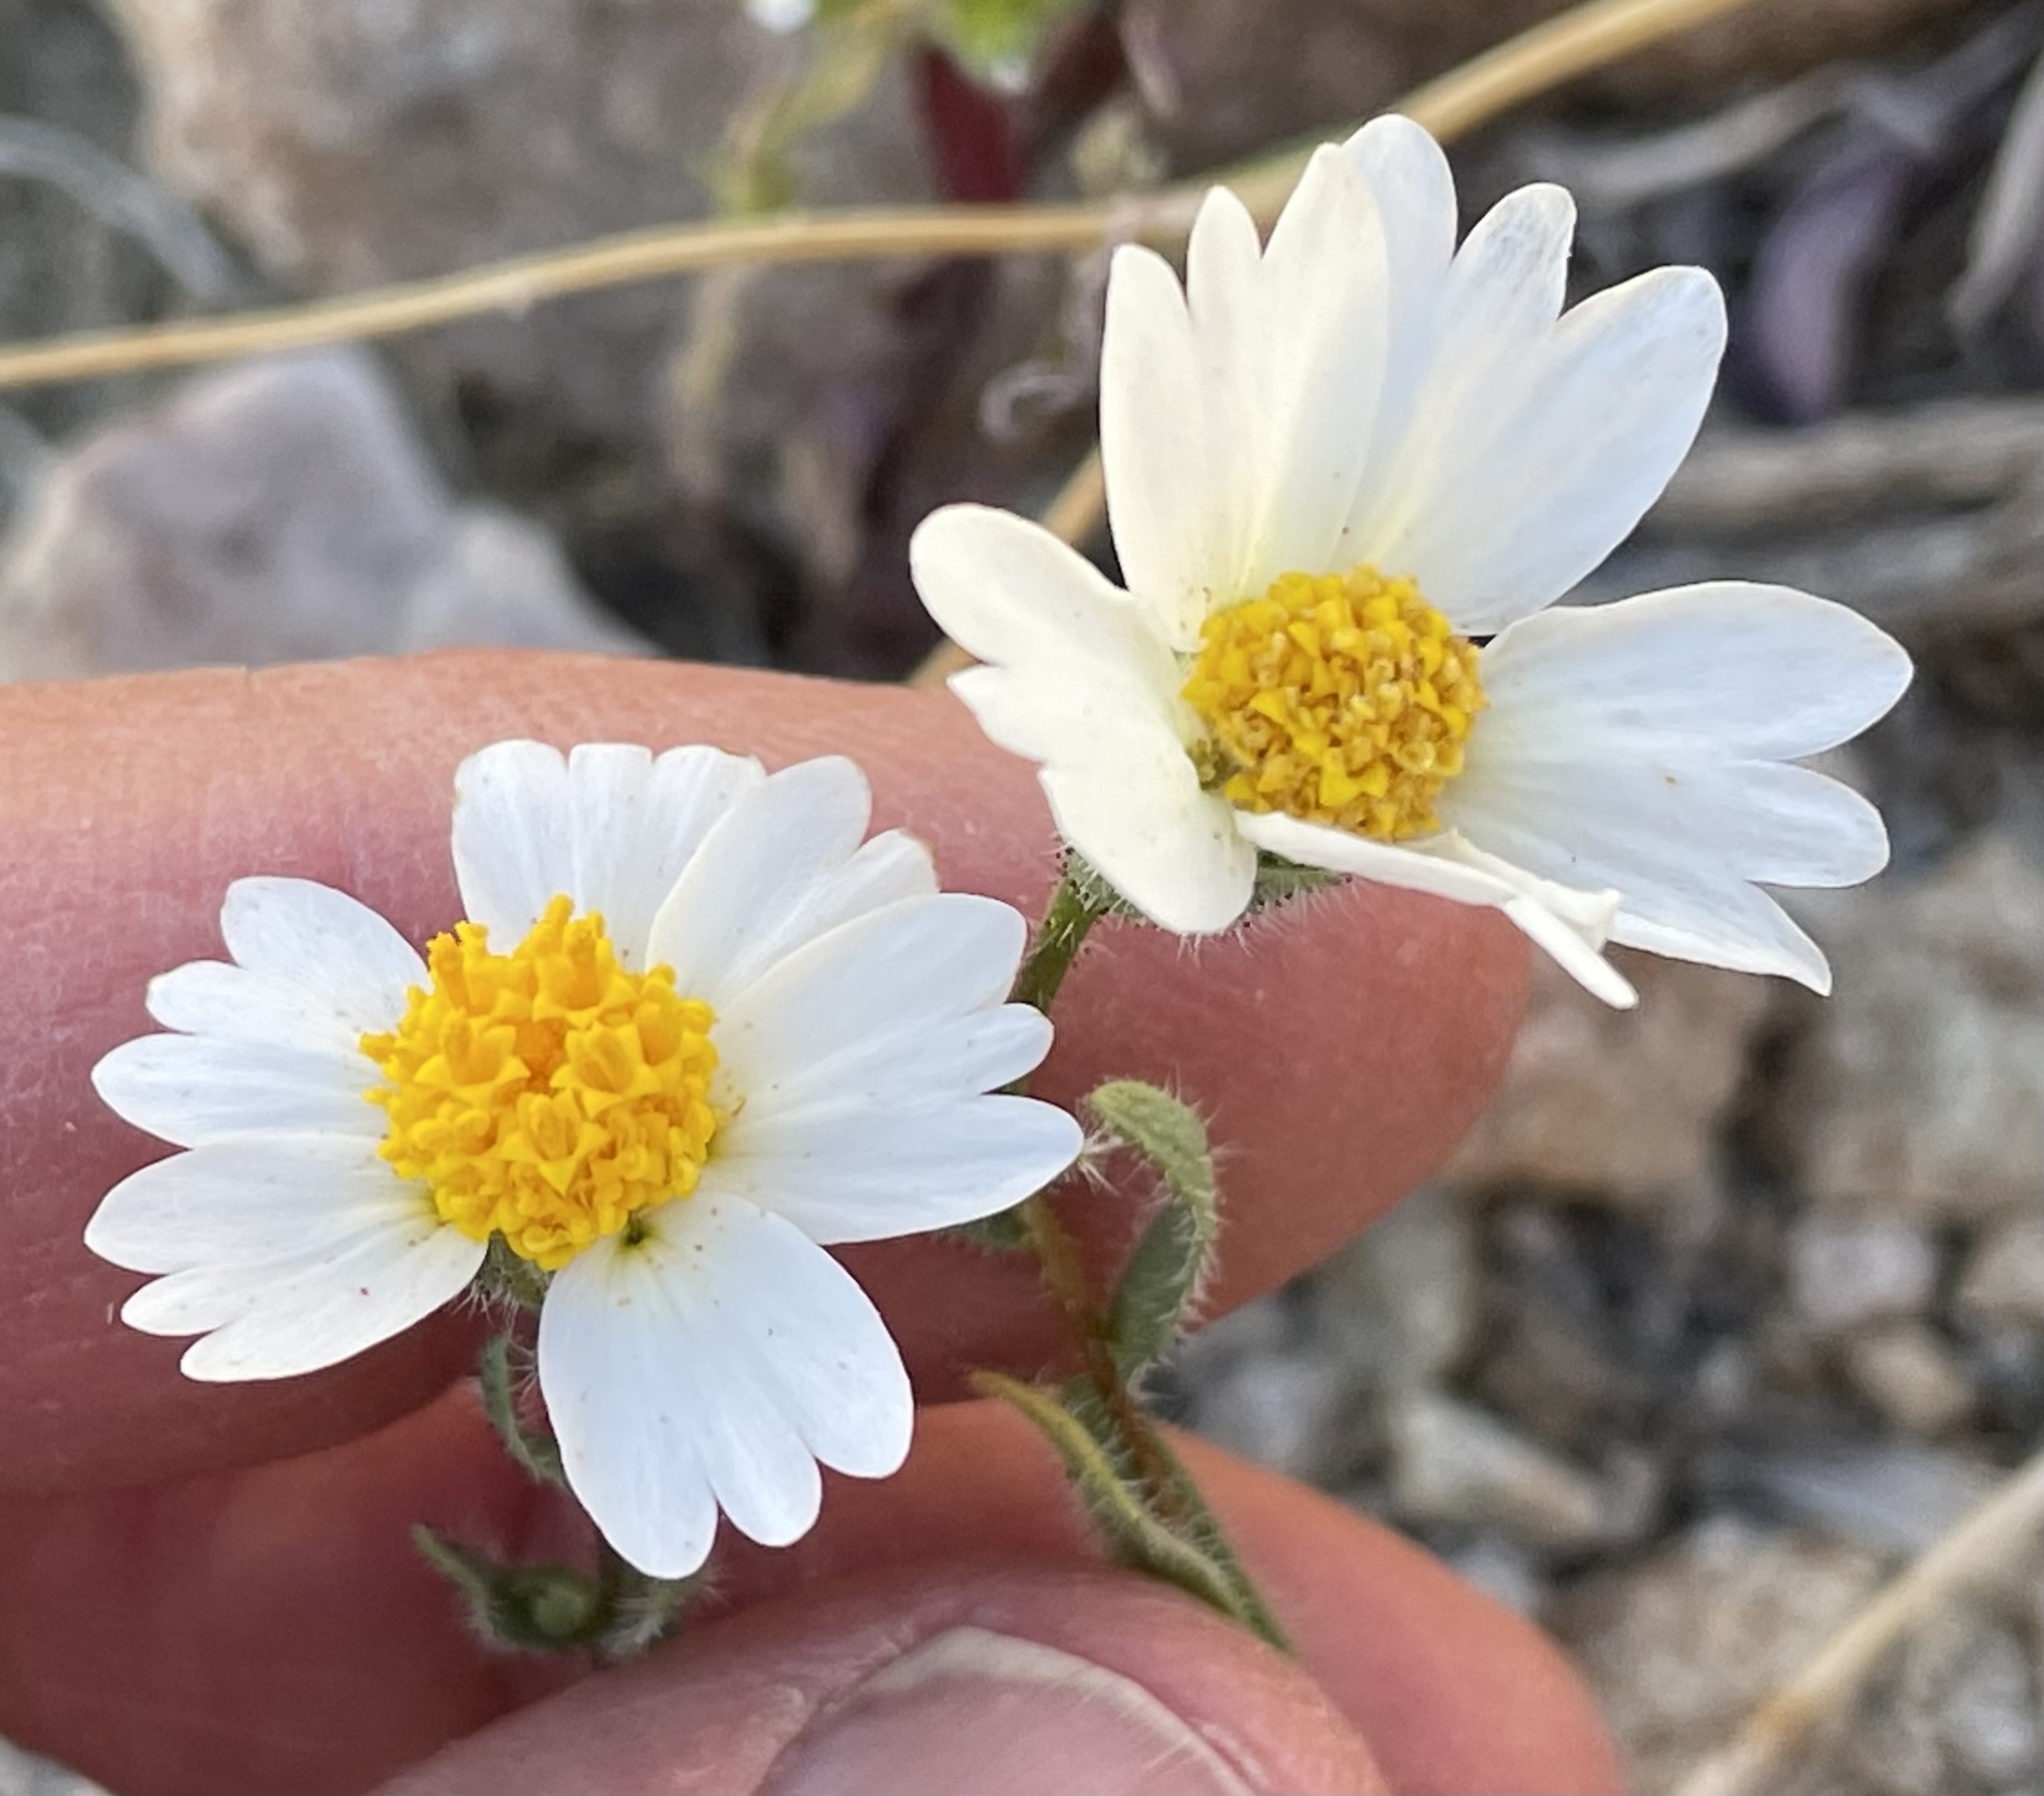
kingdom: Plantae
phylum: Tracheophyta
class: Magnoliopsida
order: Asterales
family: Asteraceae
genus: Layia
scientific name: Layia glandulosa
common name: White layia
